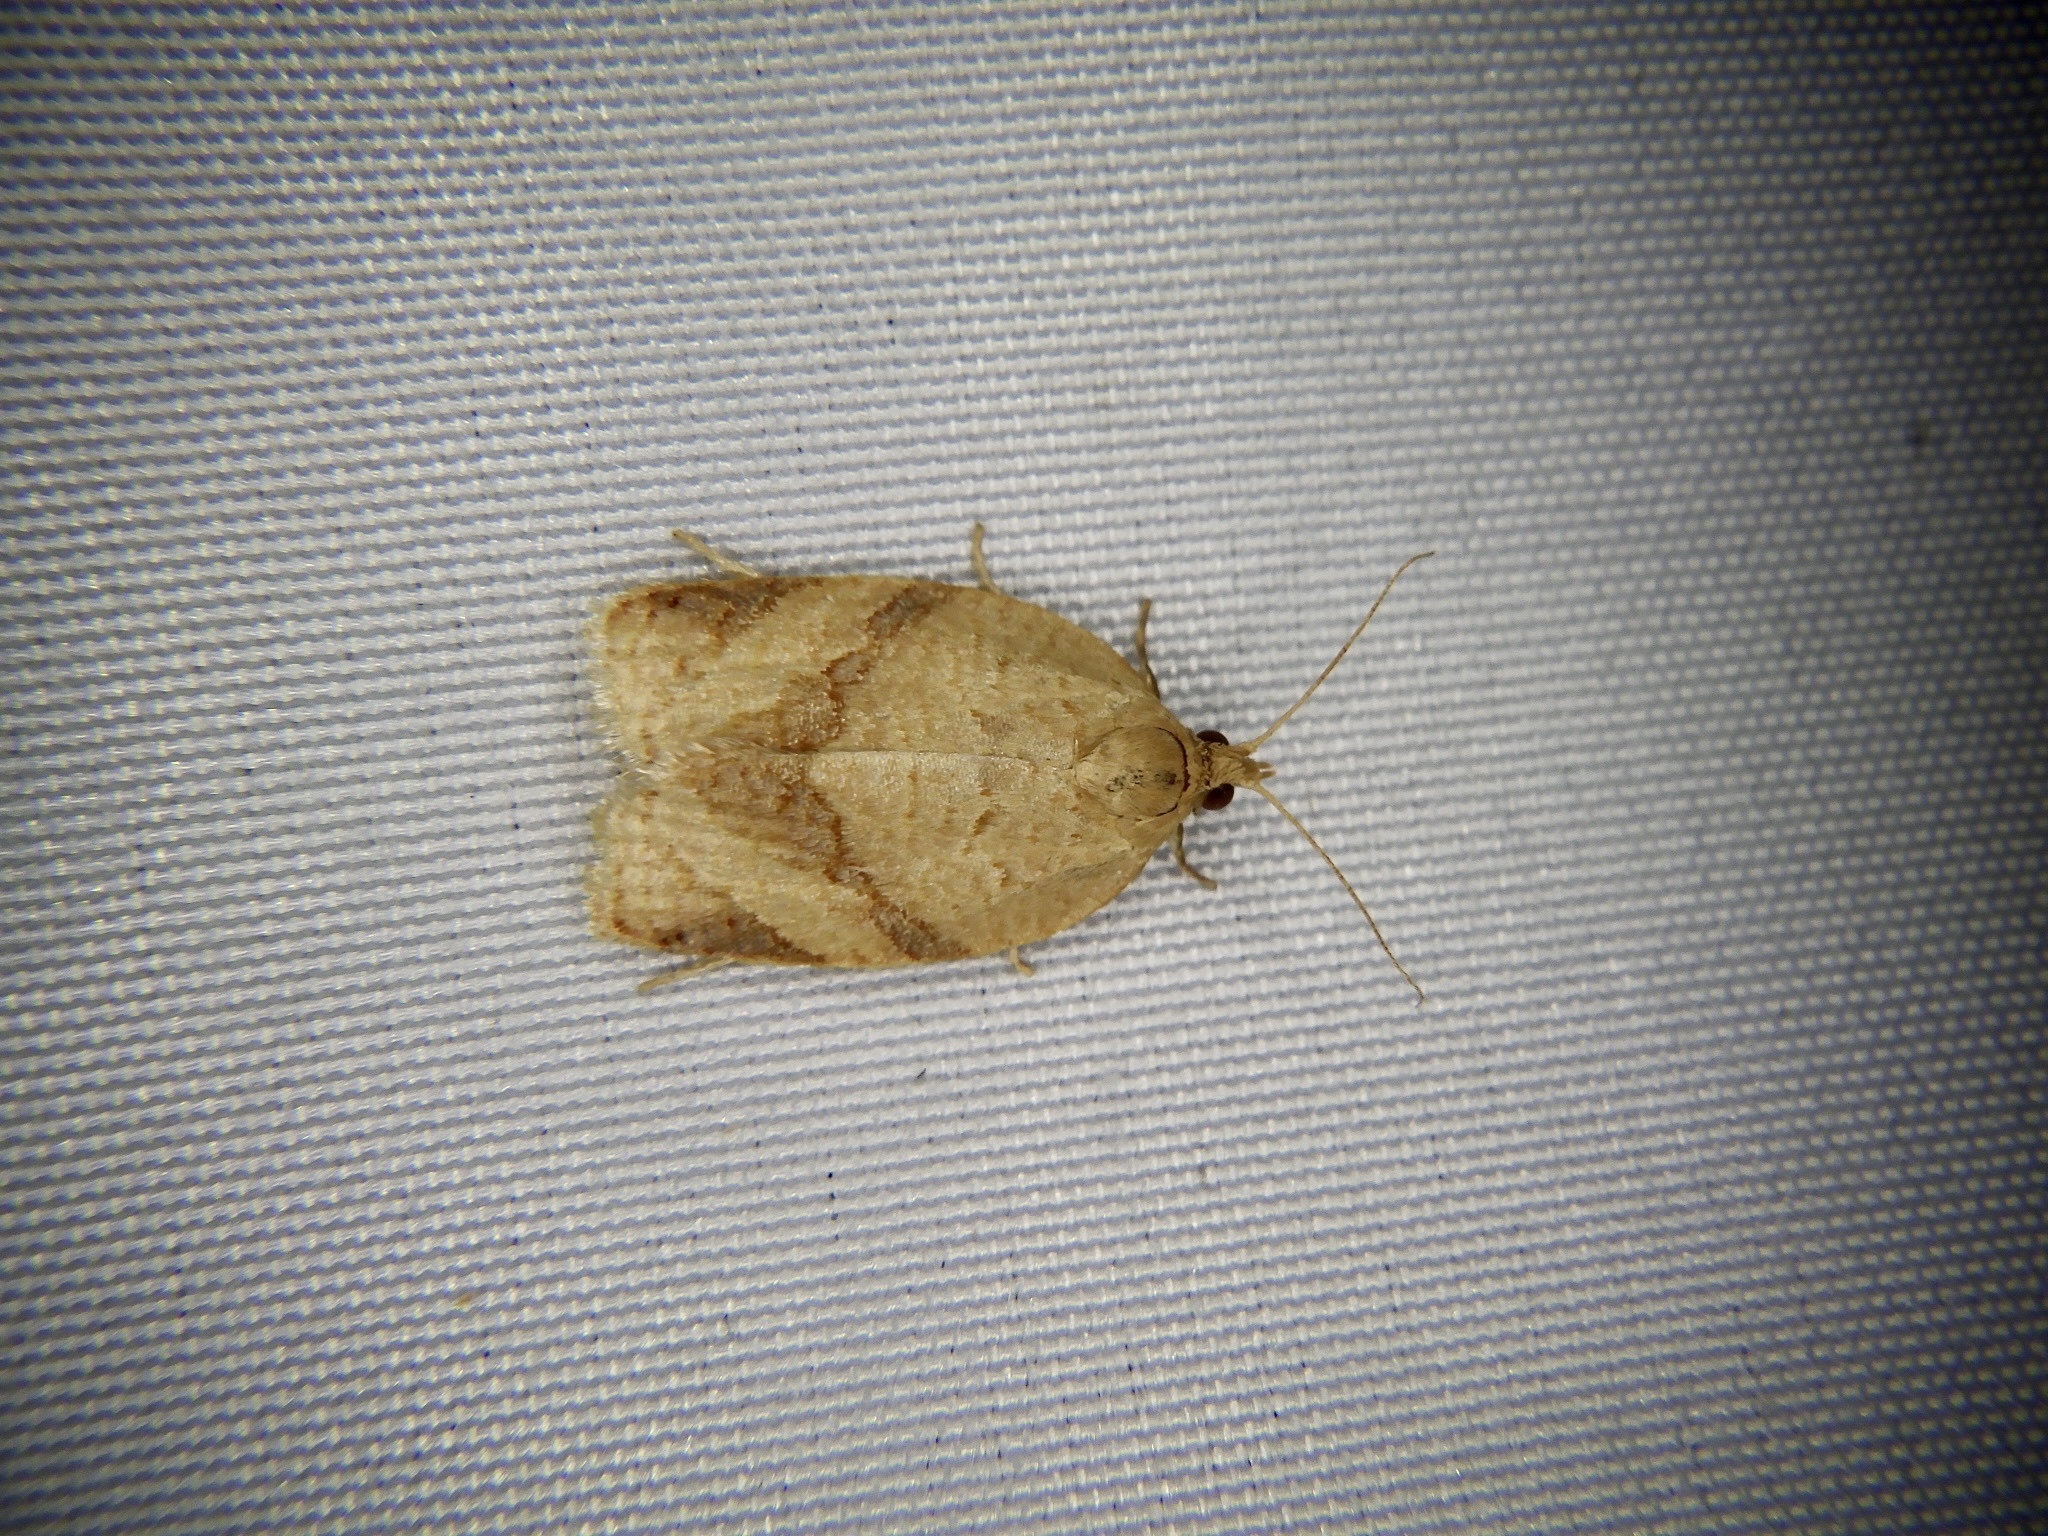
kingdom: Animalia
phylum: Arthropoda
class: Insecta
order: Lepidoptera
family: Tortricidae
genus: Adoxophyes
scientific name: Adoxophyes honmai
